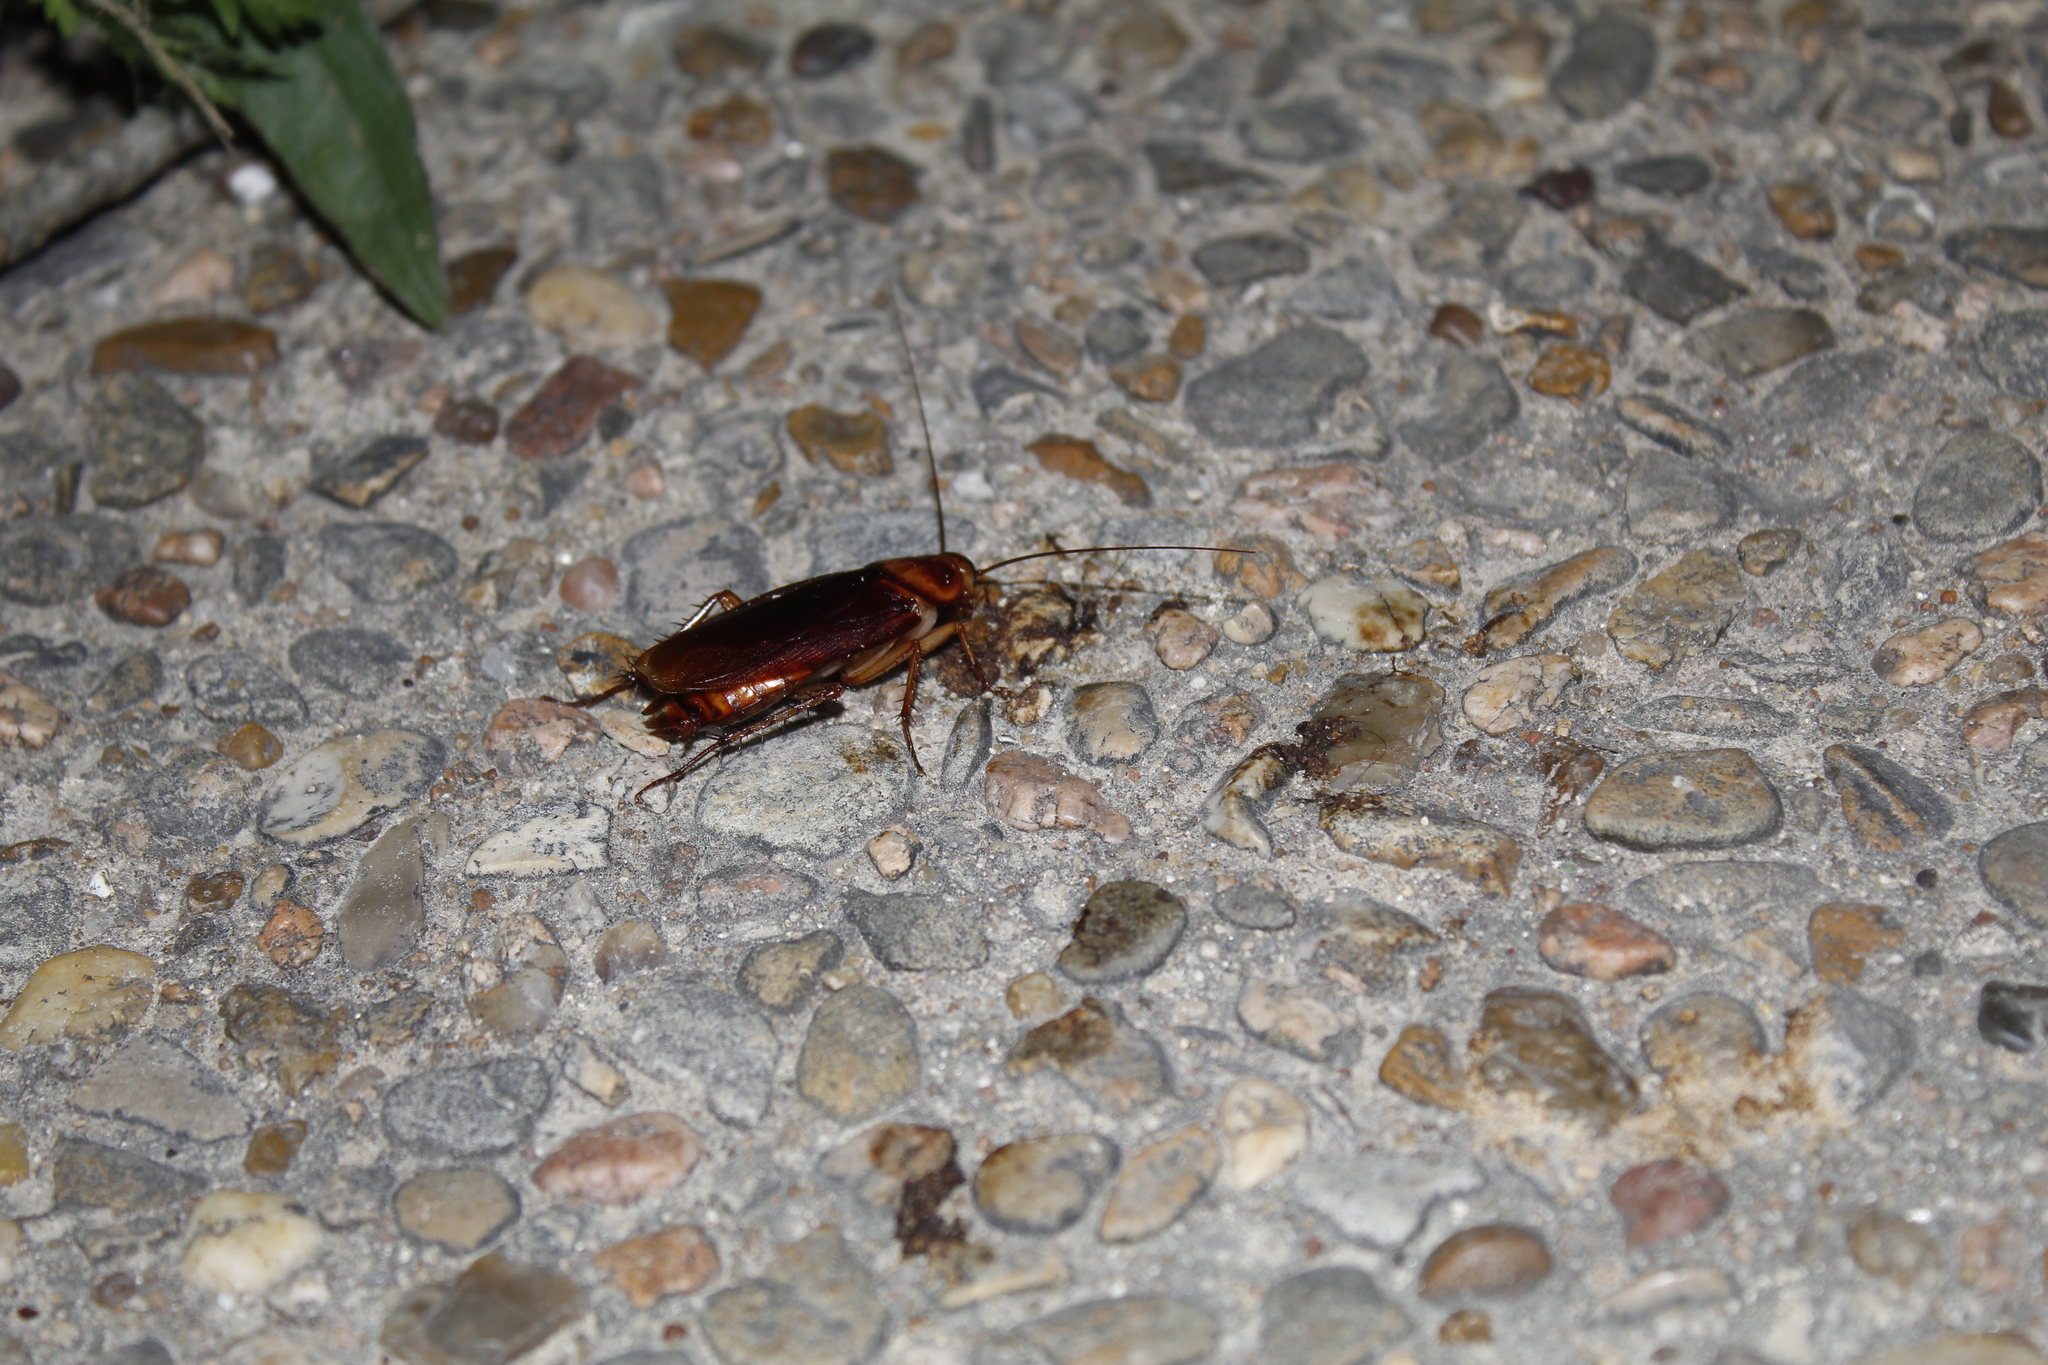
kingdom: Animalia
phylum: Arthropoda
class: Insecta
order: Blattodea
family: Blattidae
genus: Periplaneta
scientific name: Periplaneta americana
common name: American cockroach
